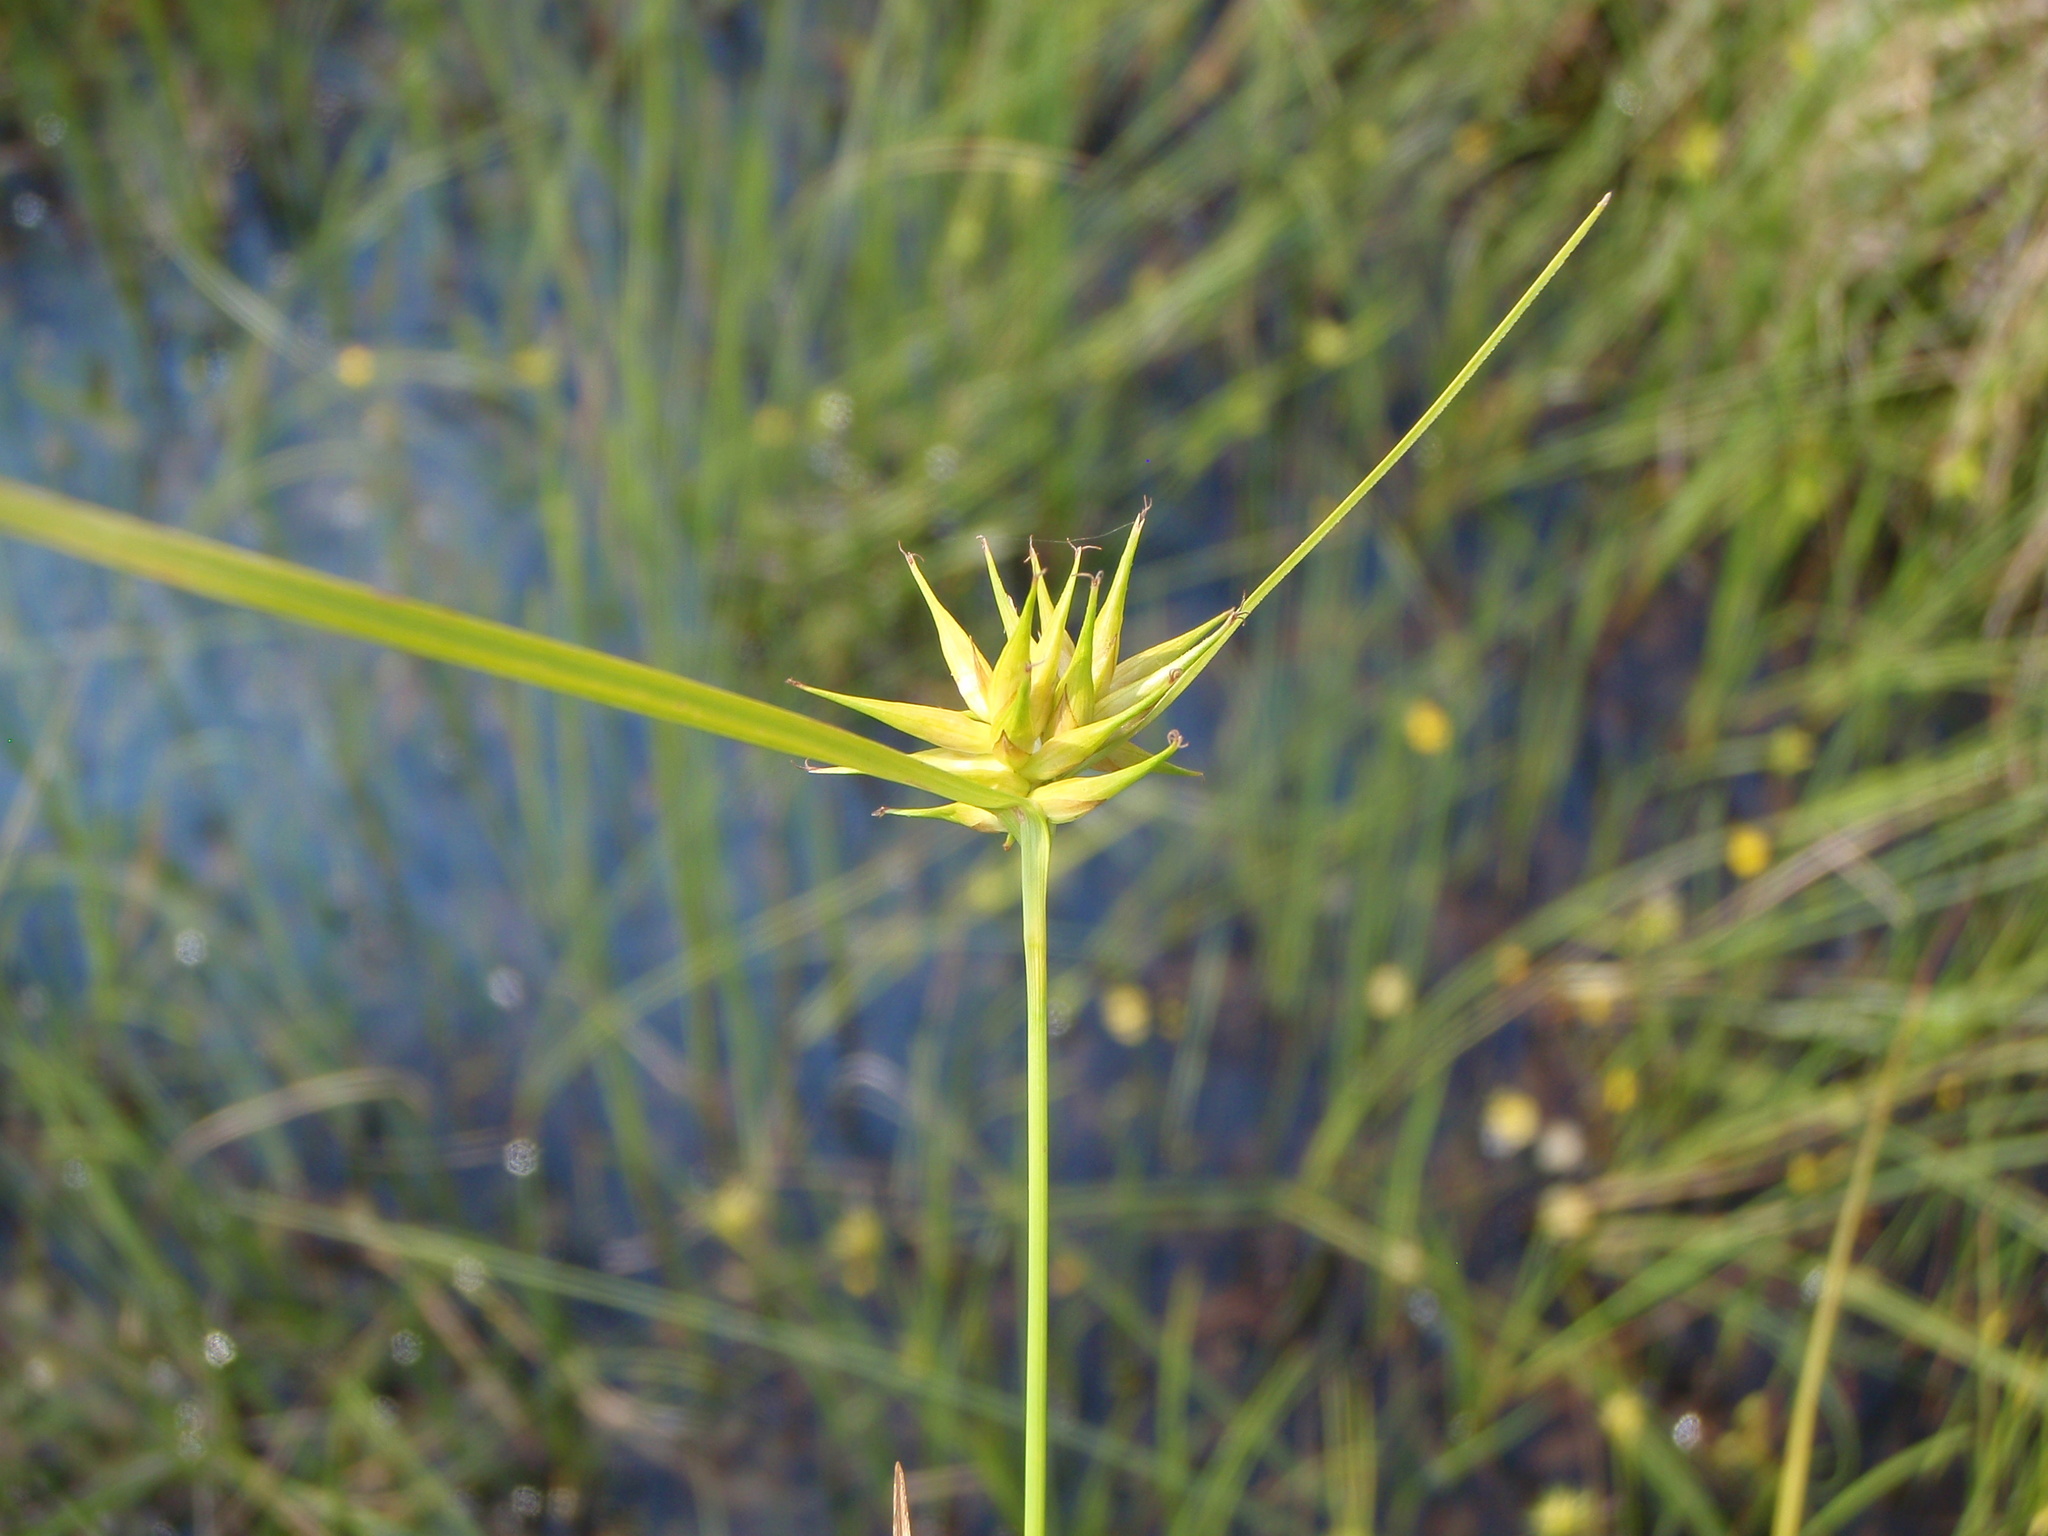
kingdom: Plantae
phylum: Tracheophyta
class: Liliopsida
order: Poales
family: Cyperaceae
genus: Carex
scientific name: Carex michauxiana
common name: Michaux's sedge
